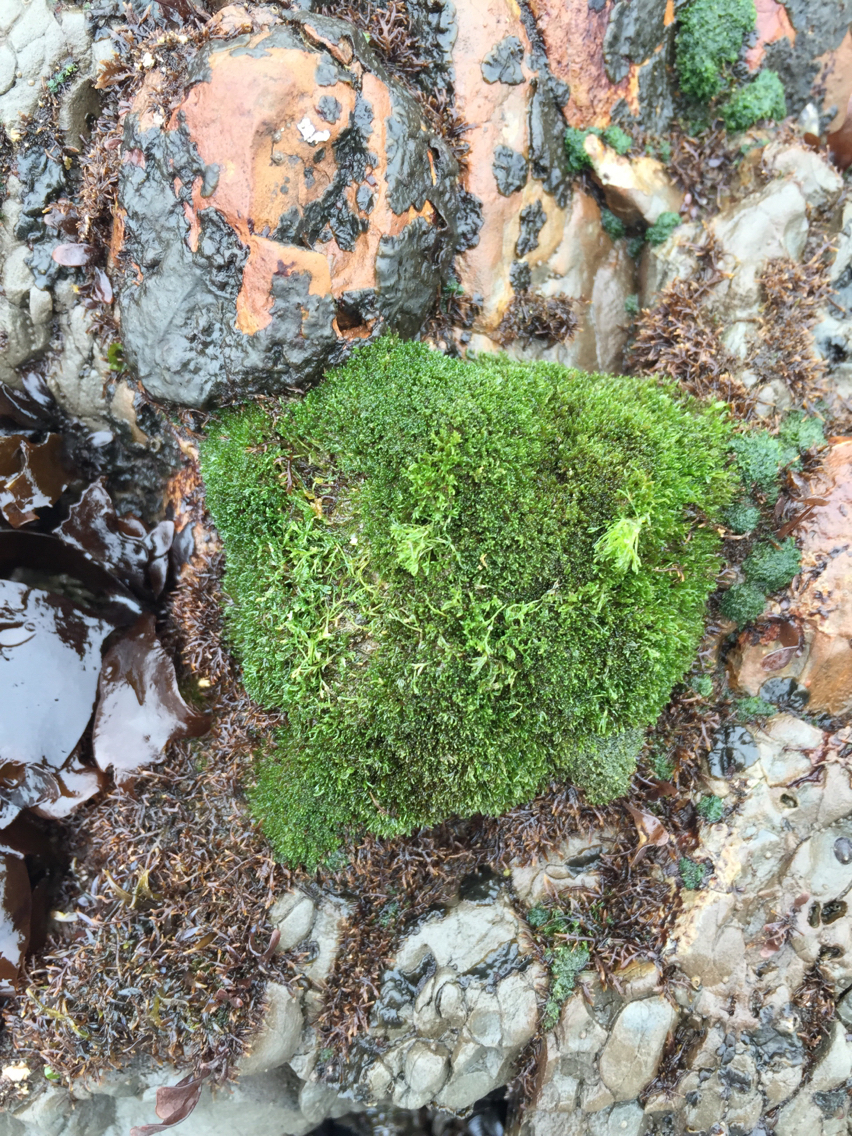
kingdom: Plantae
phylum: Chlorophyta
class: Ulvophyceae
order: Cladophorales
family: Cladophoraceae
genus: Cladophora
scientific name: Cladophora columbiana
